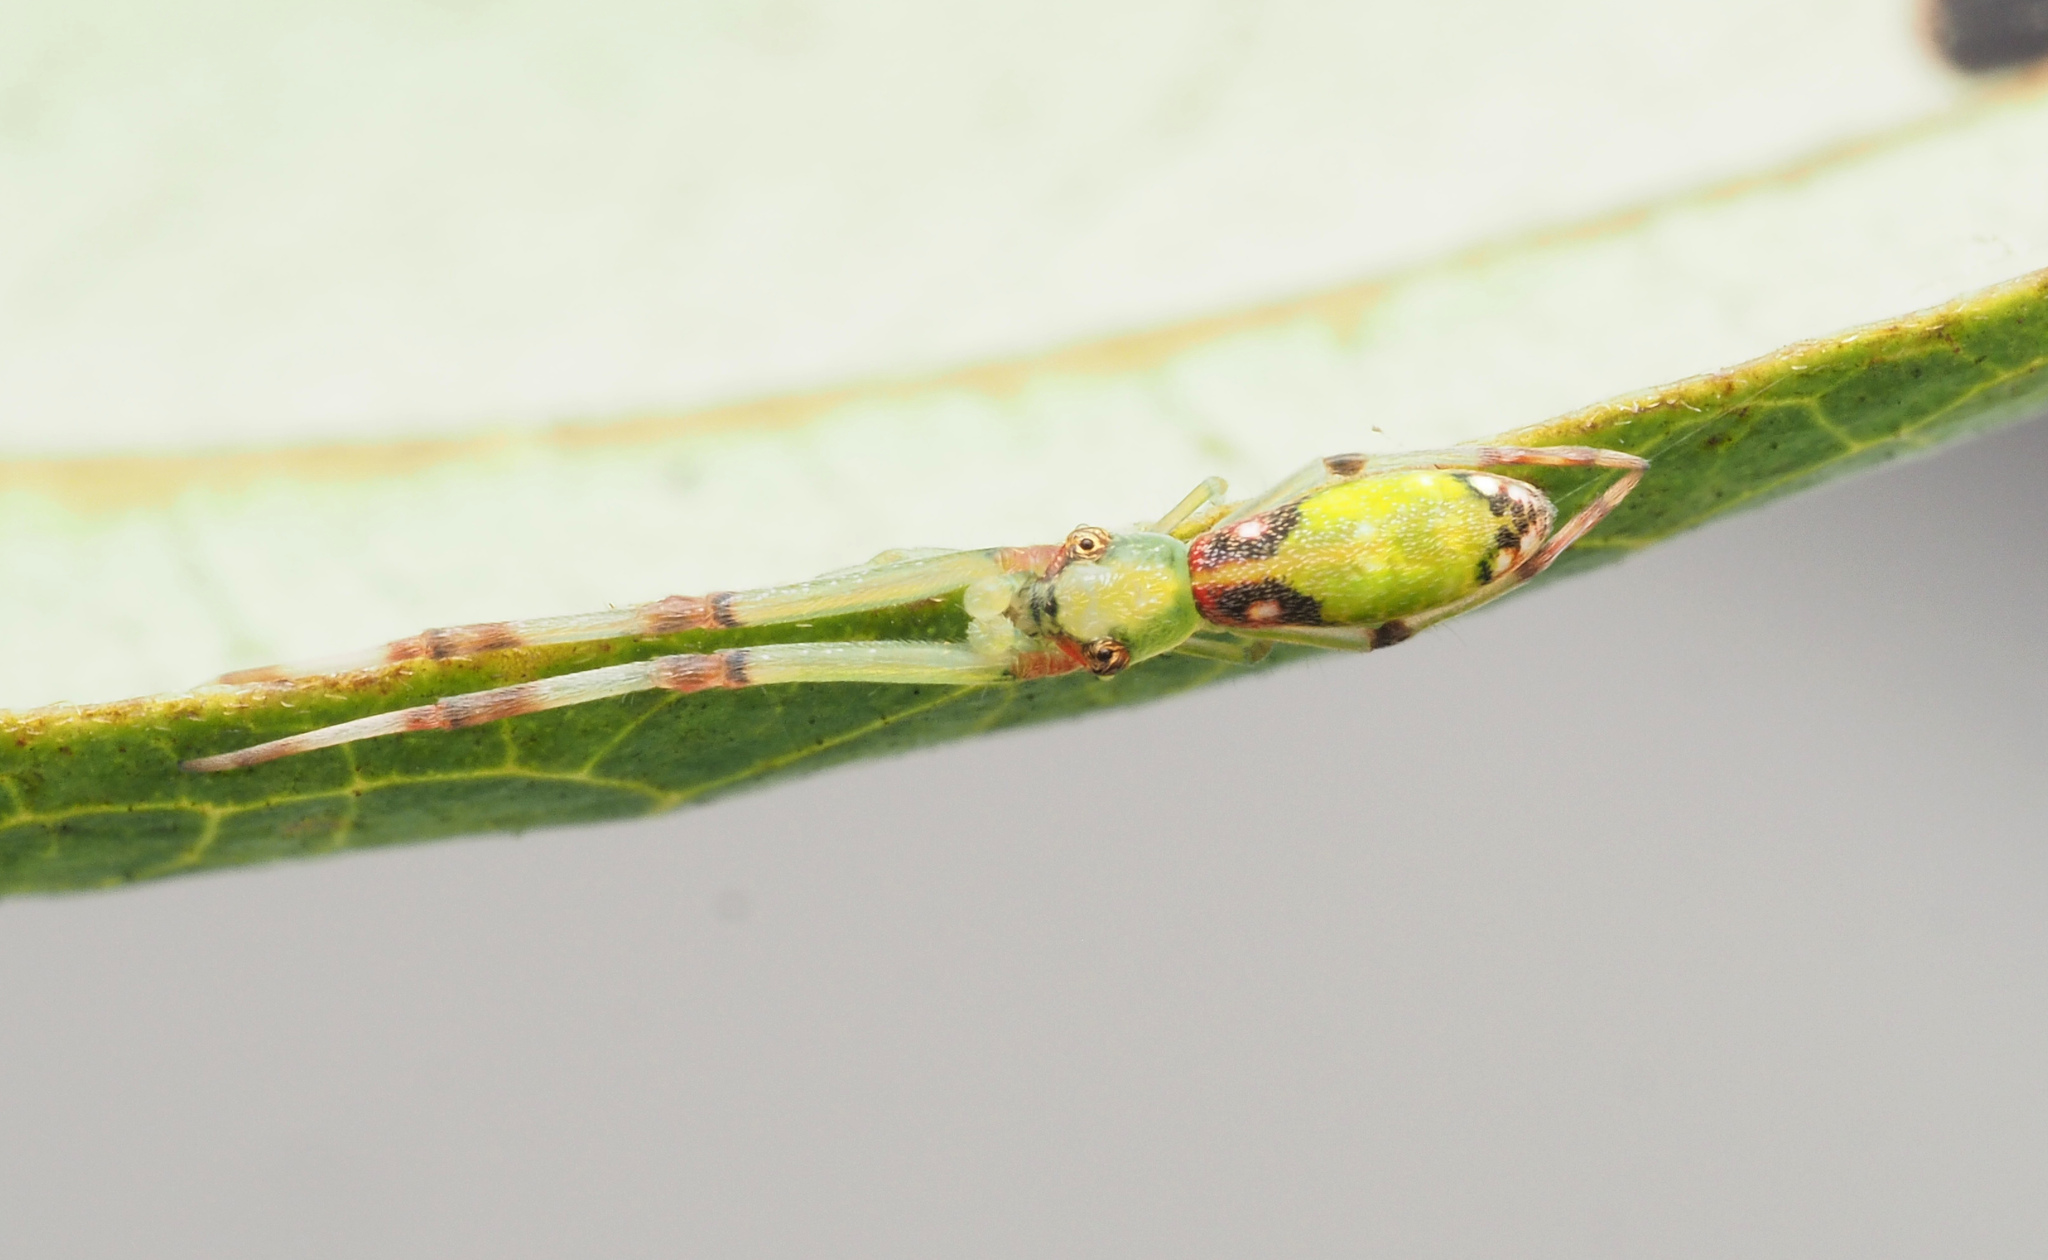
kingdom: Animalia
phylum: Arthropoda
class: Arachnida
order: Araneae
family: Uloboridae
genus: Miagrammopes
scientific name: Miagrammopes flavus
